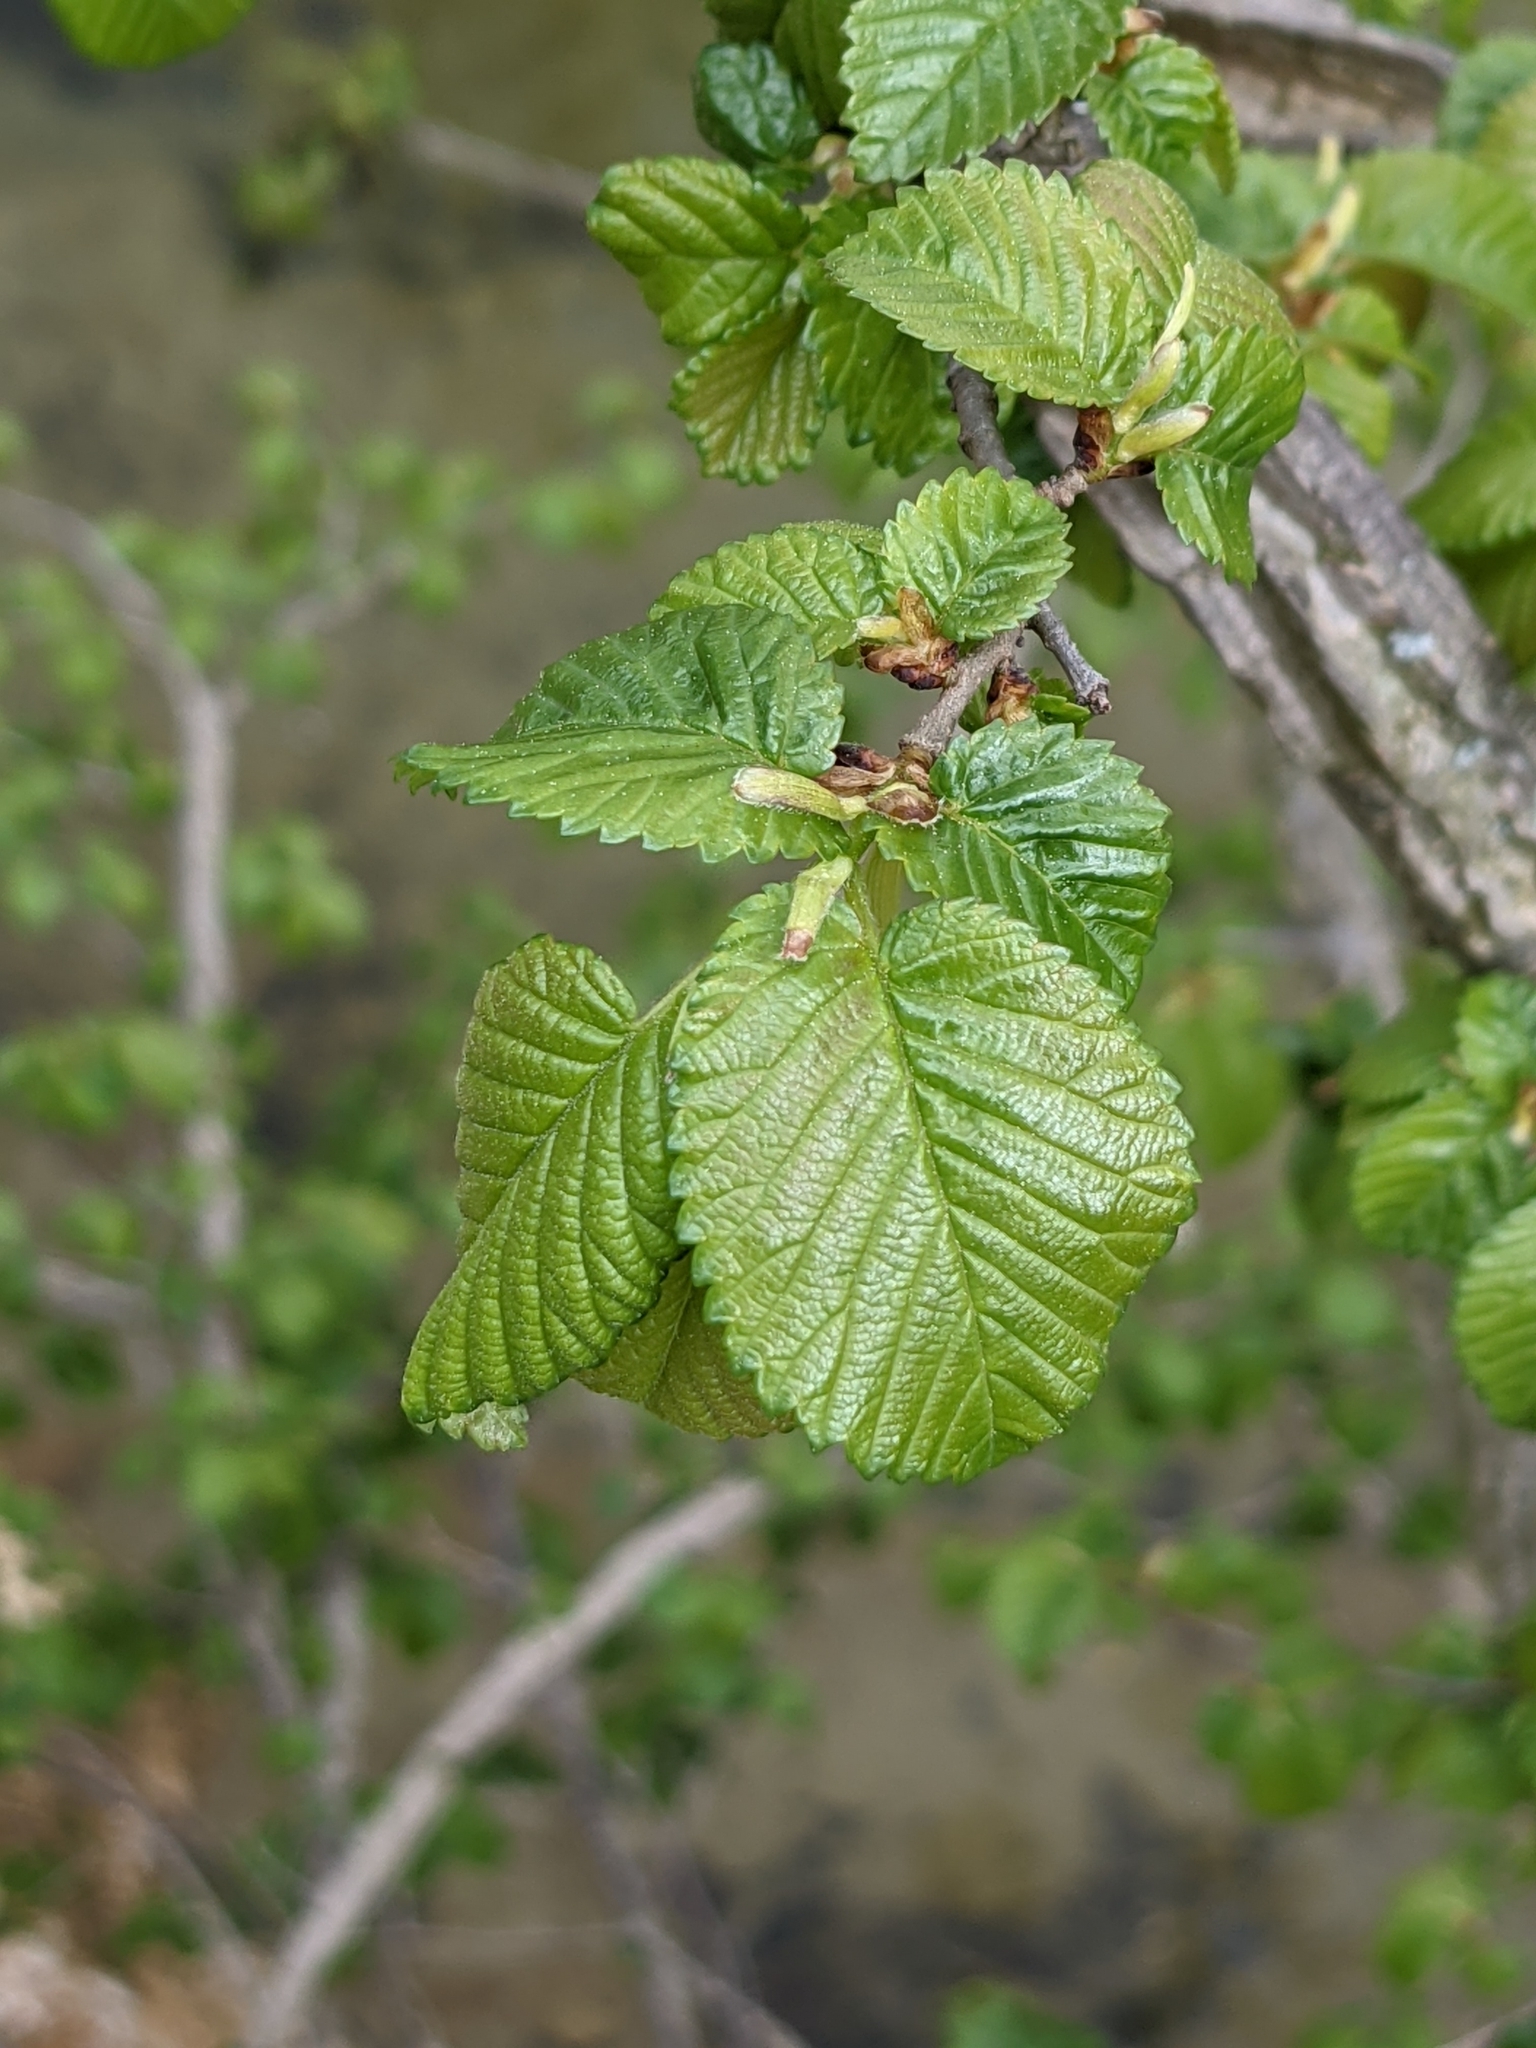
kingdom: Plantae
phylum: Tracheophyta
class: Magnoliopsida
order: Rosales
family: Ulmaceae
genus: Ulmus
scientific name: Ulmus minor
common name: Small-leaved elm
